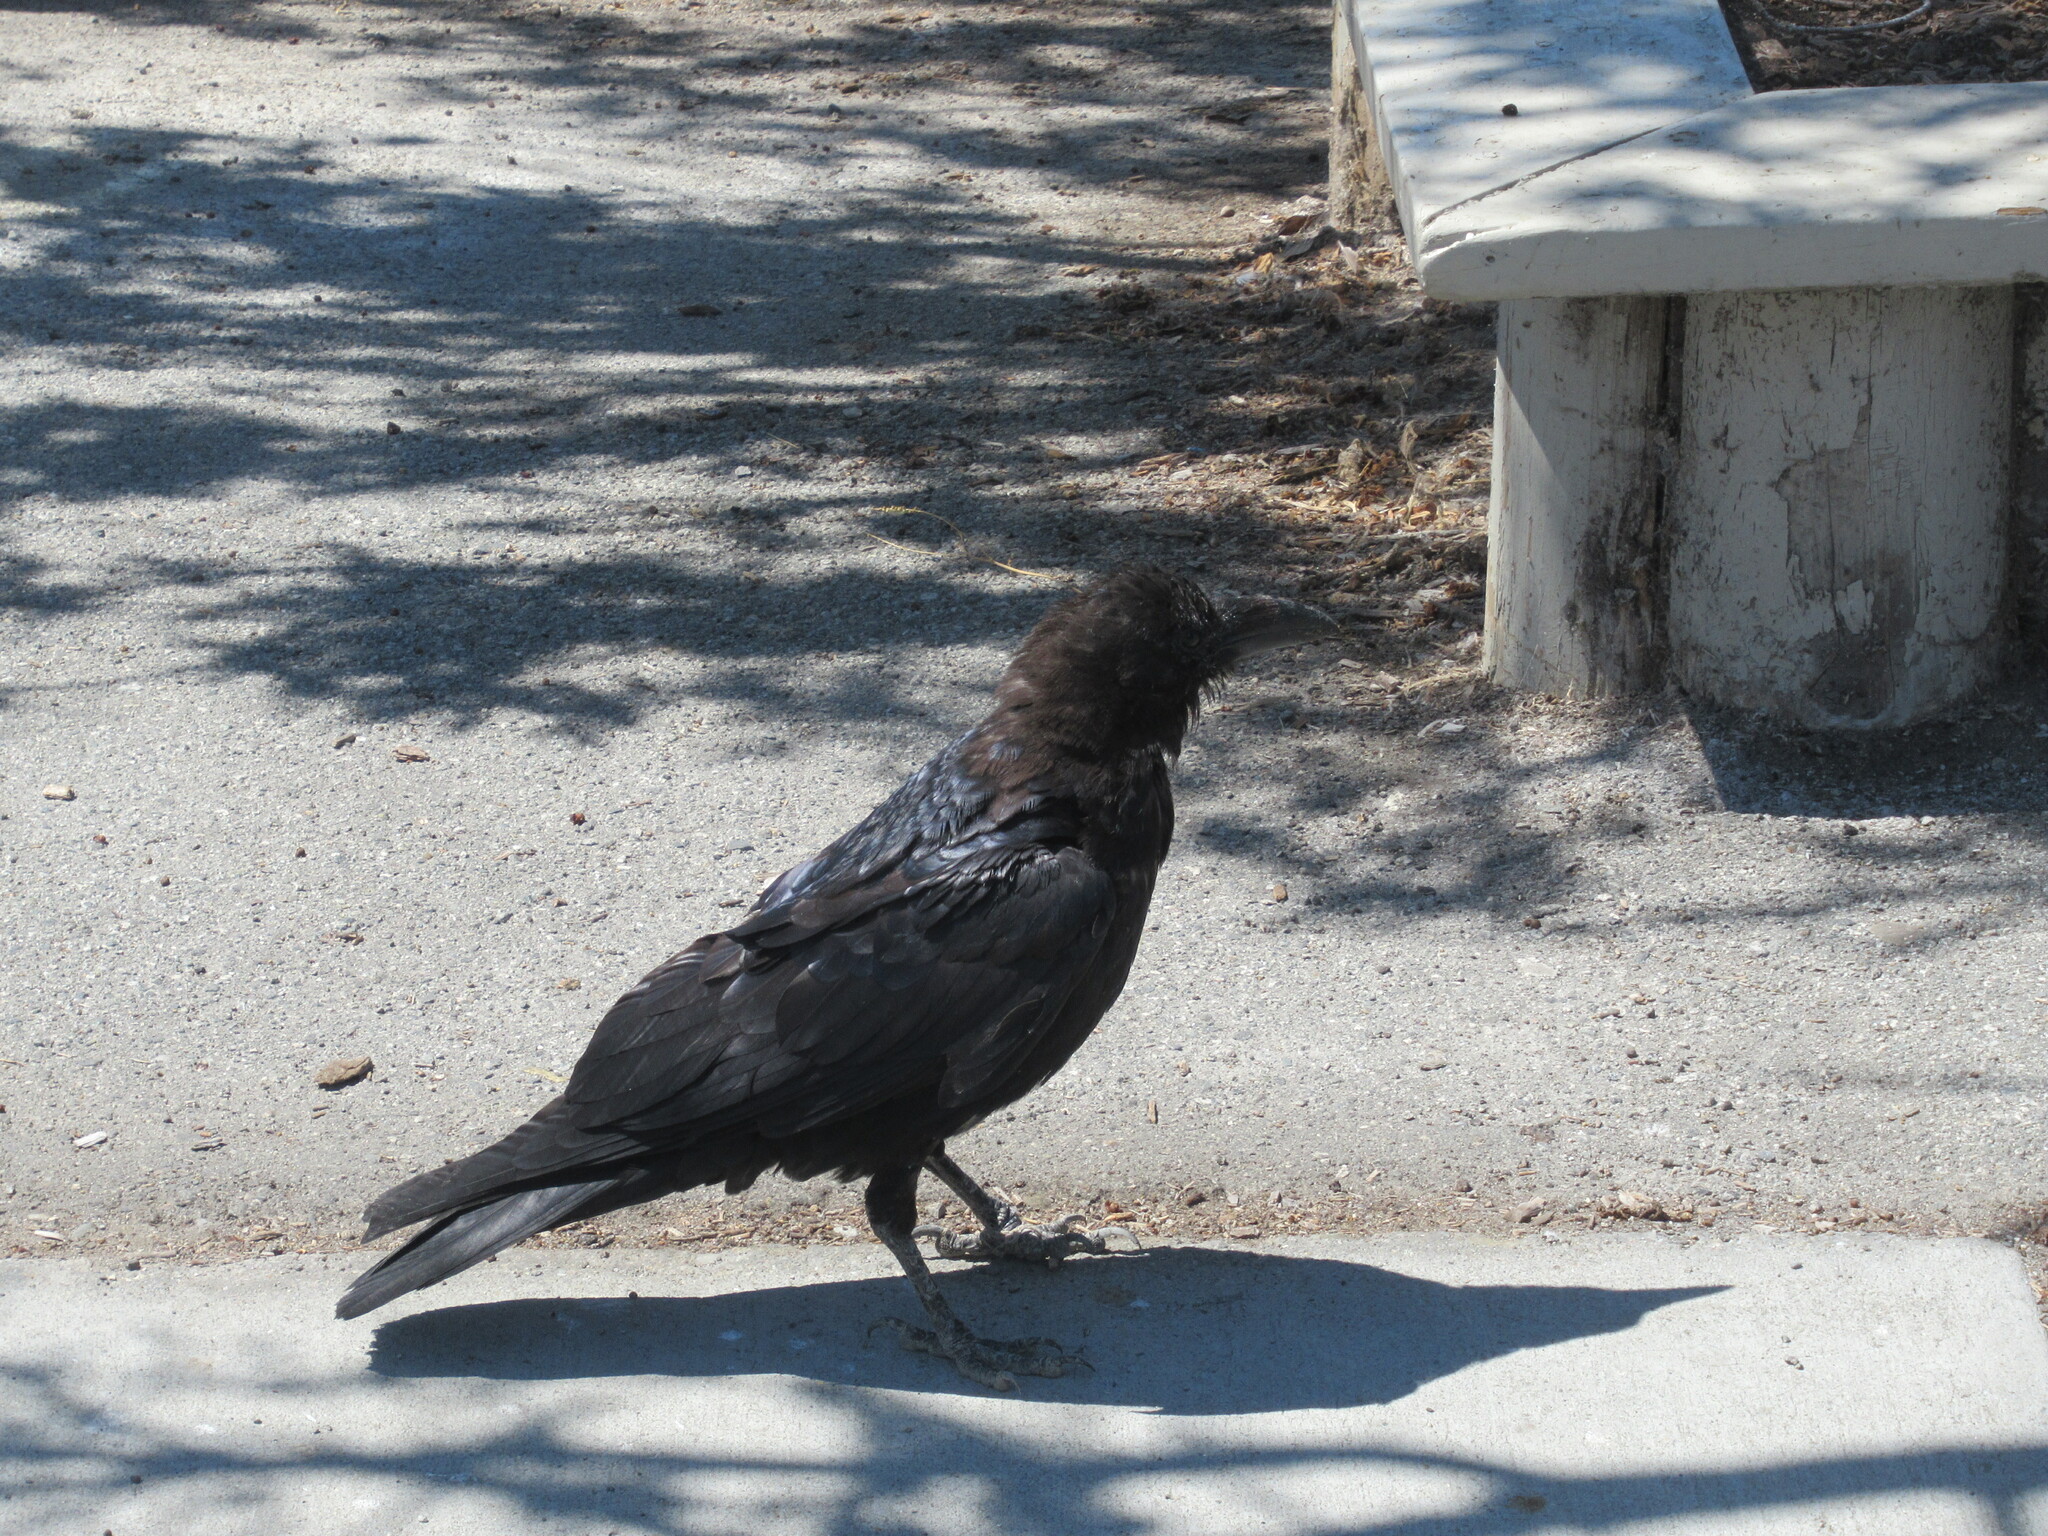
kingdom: Animalia
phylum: Chordata
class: Aves
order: Passeriformes
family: Corvidae
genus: Corvus
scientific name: Corvus corax
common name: Common raven
